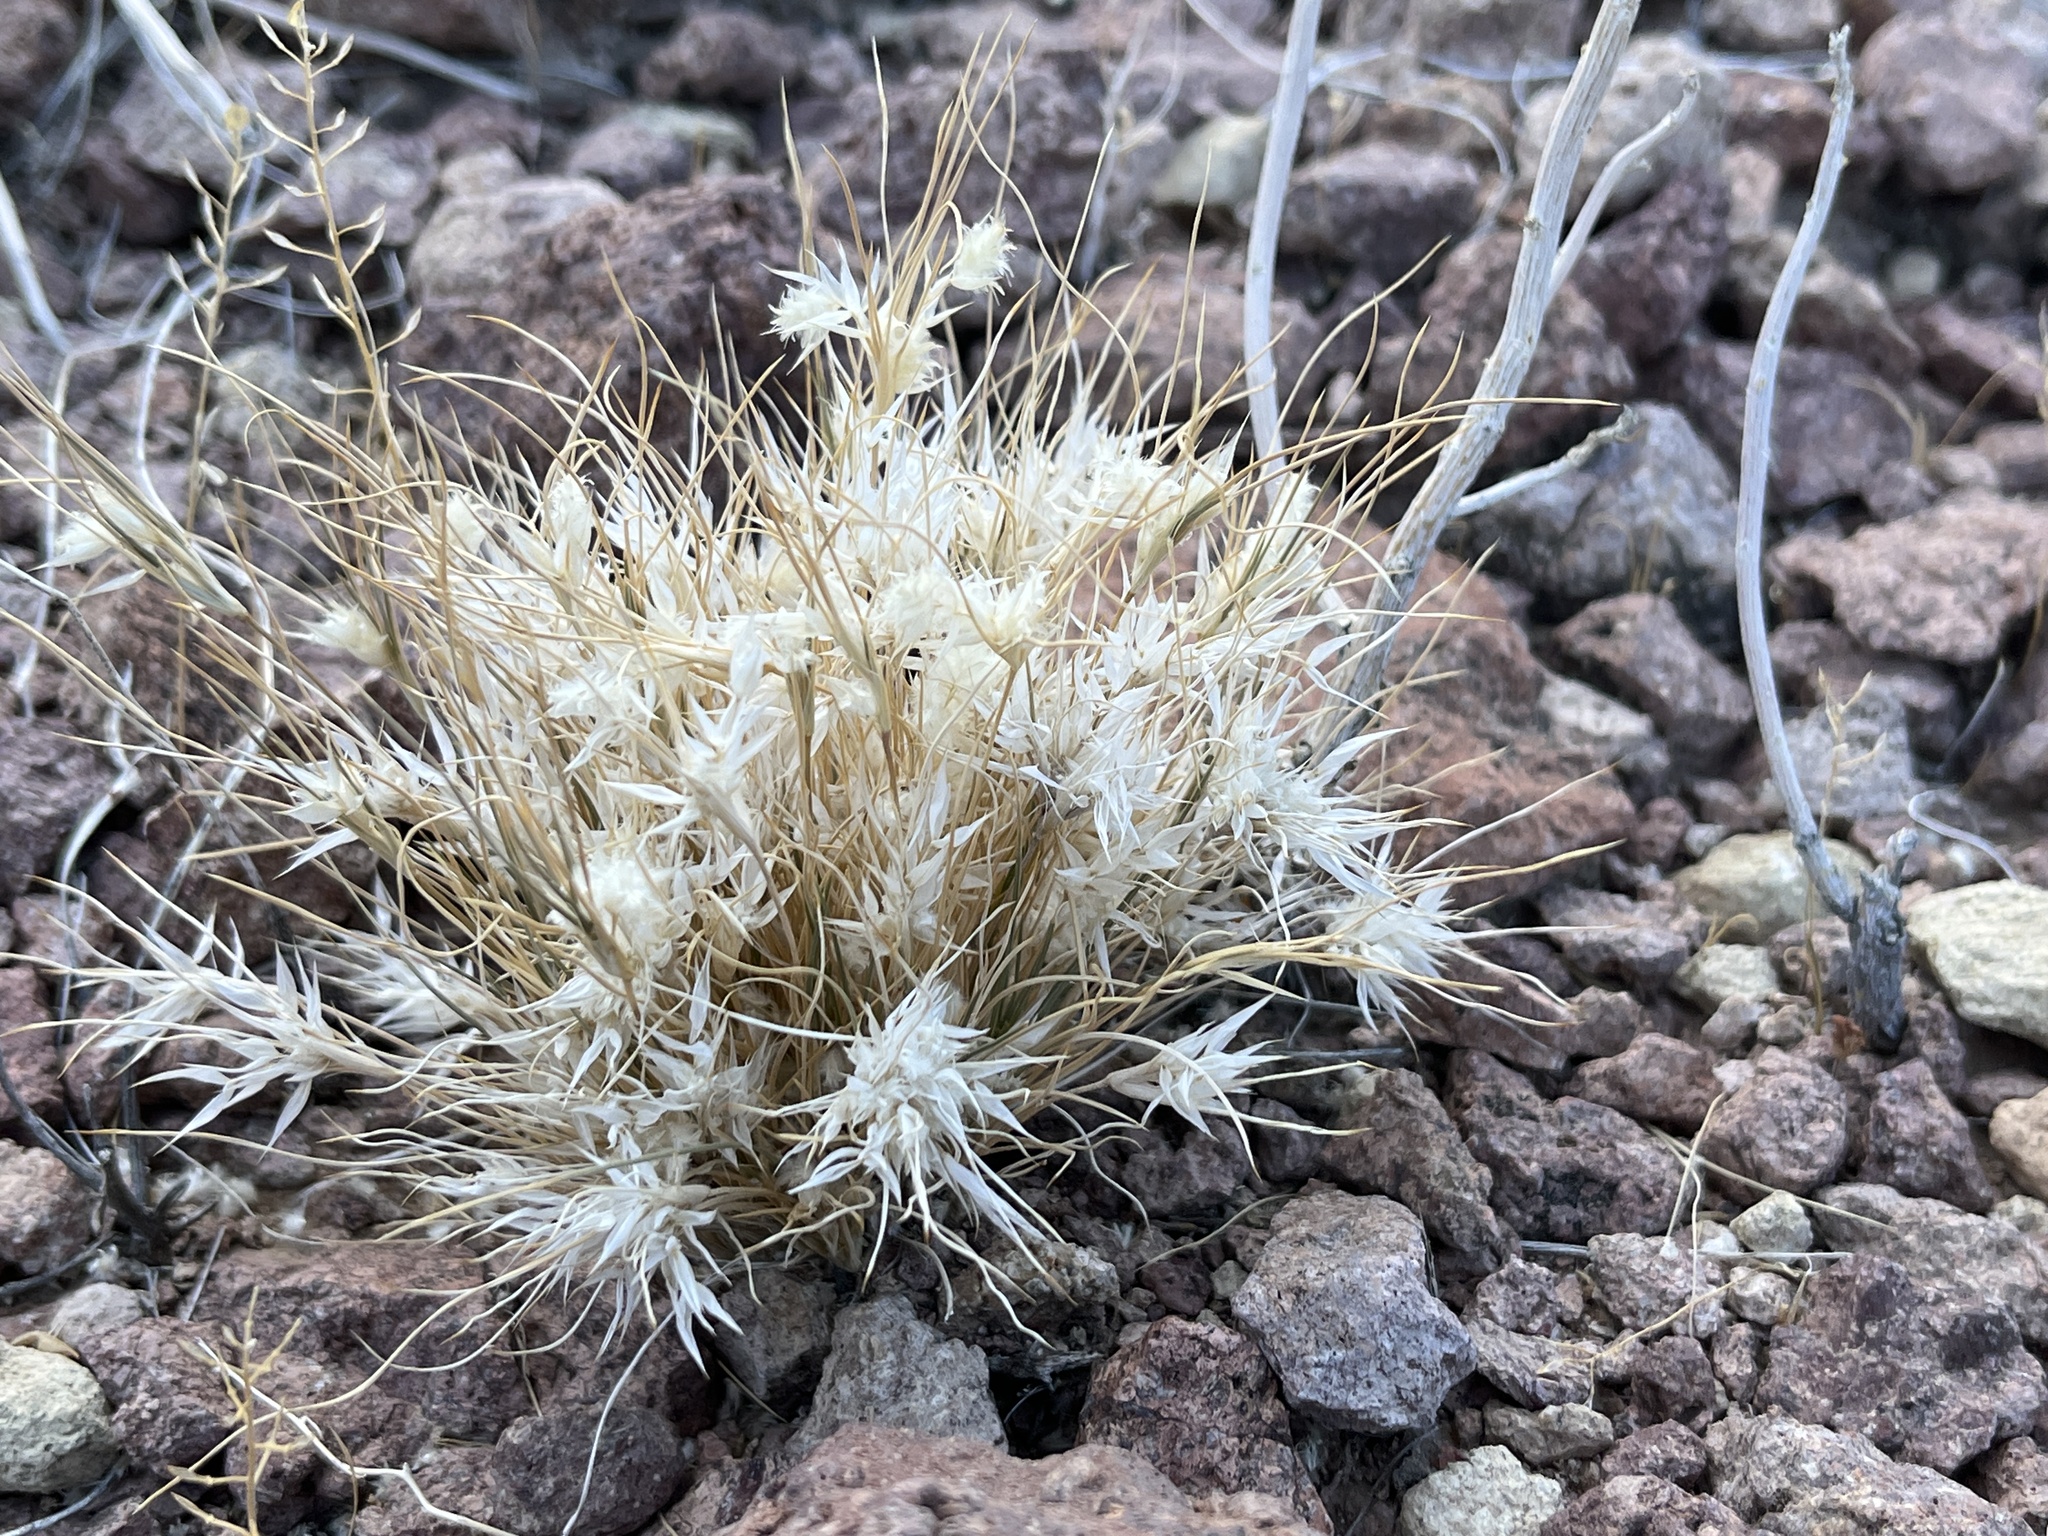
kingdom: Plantae
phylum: Tracheophyta
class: Liliopsida
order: Poales
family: Poaceae
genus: Dasyochloa
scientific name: Dasyochloa pulchella
